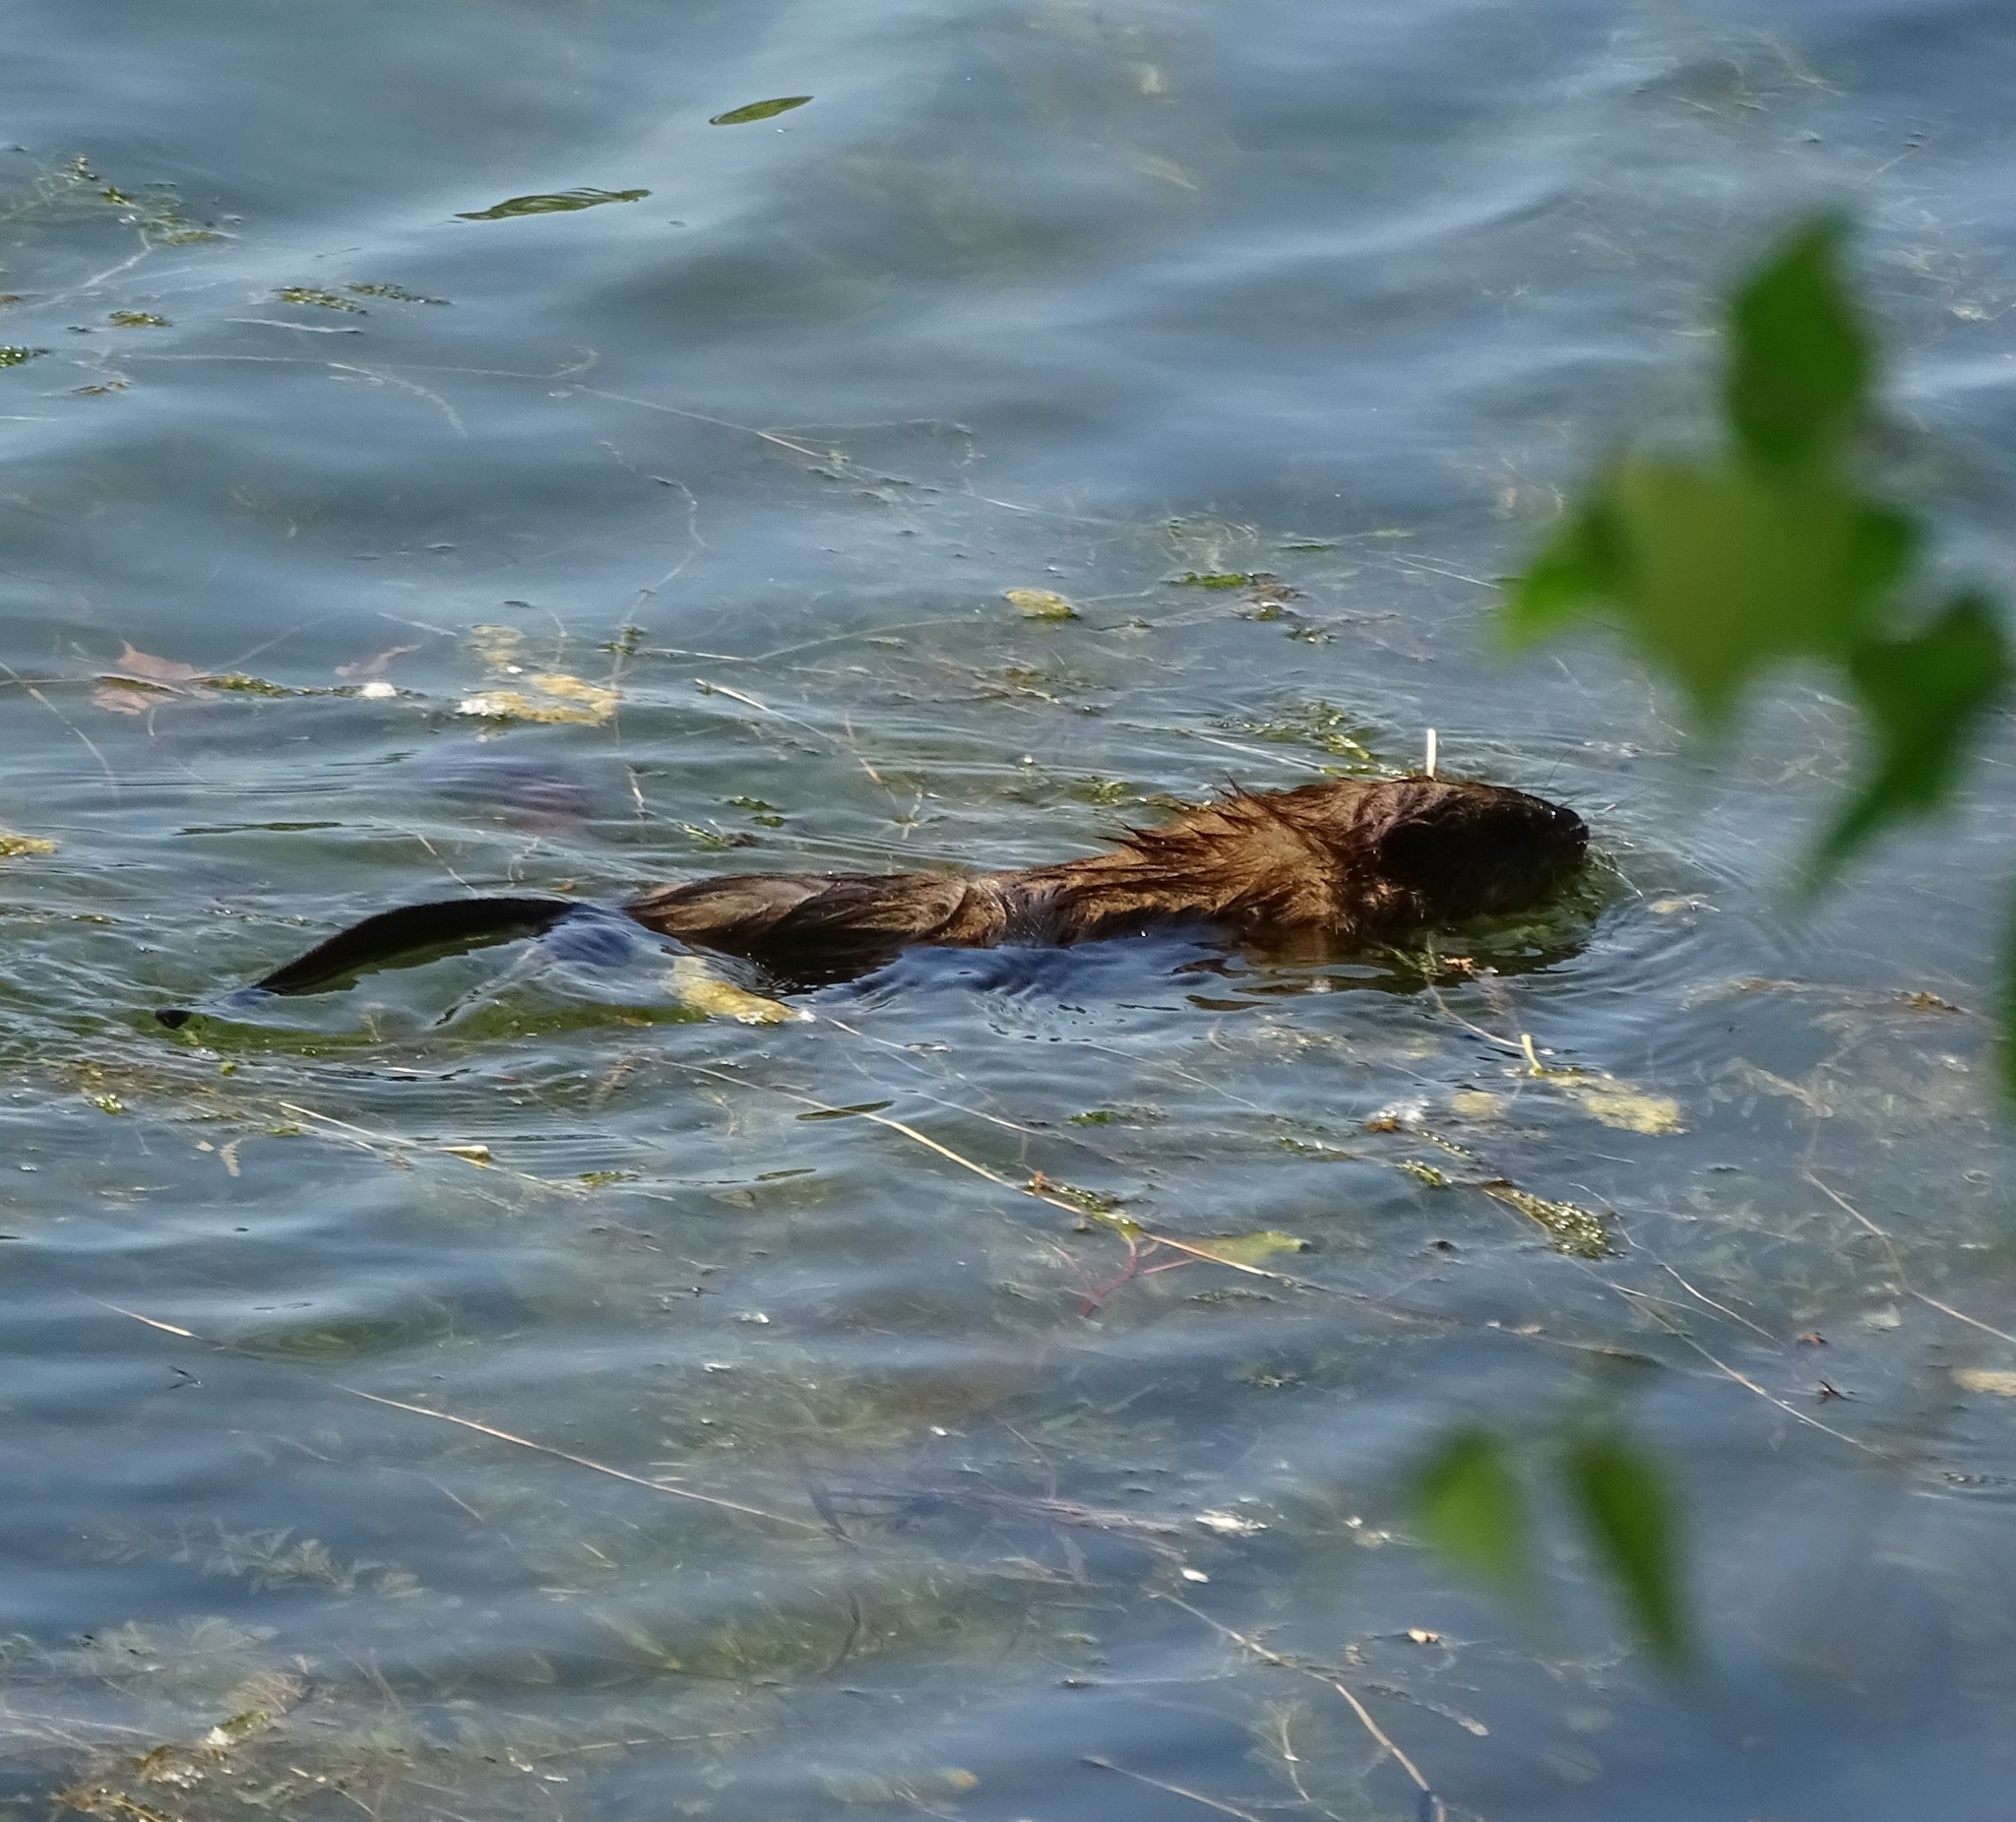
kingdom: Animalia
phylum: Chordata
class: Mammalia
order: Rodentia
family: Cricetidae
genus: Ondatra
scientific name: Ondatra zibethicus
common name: Muskrat
